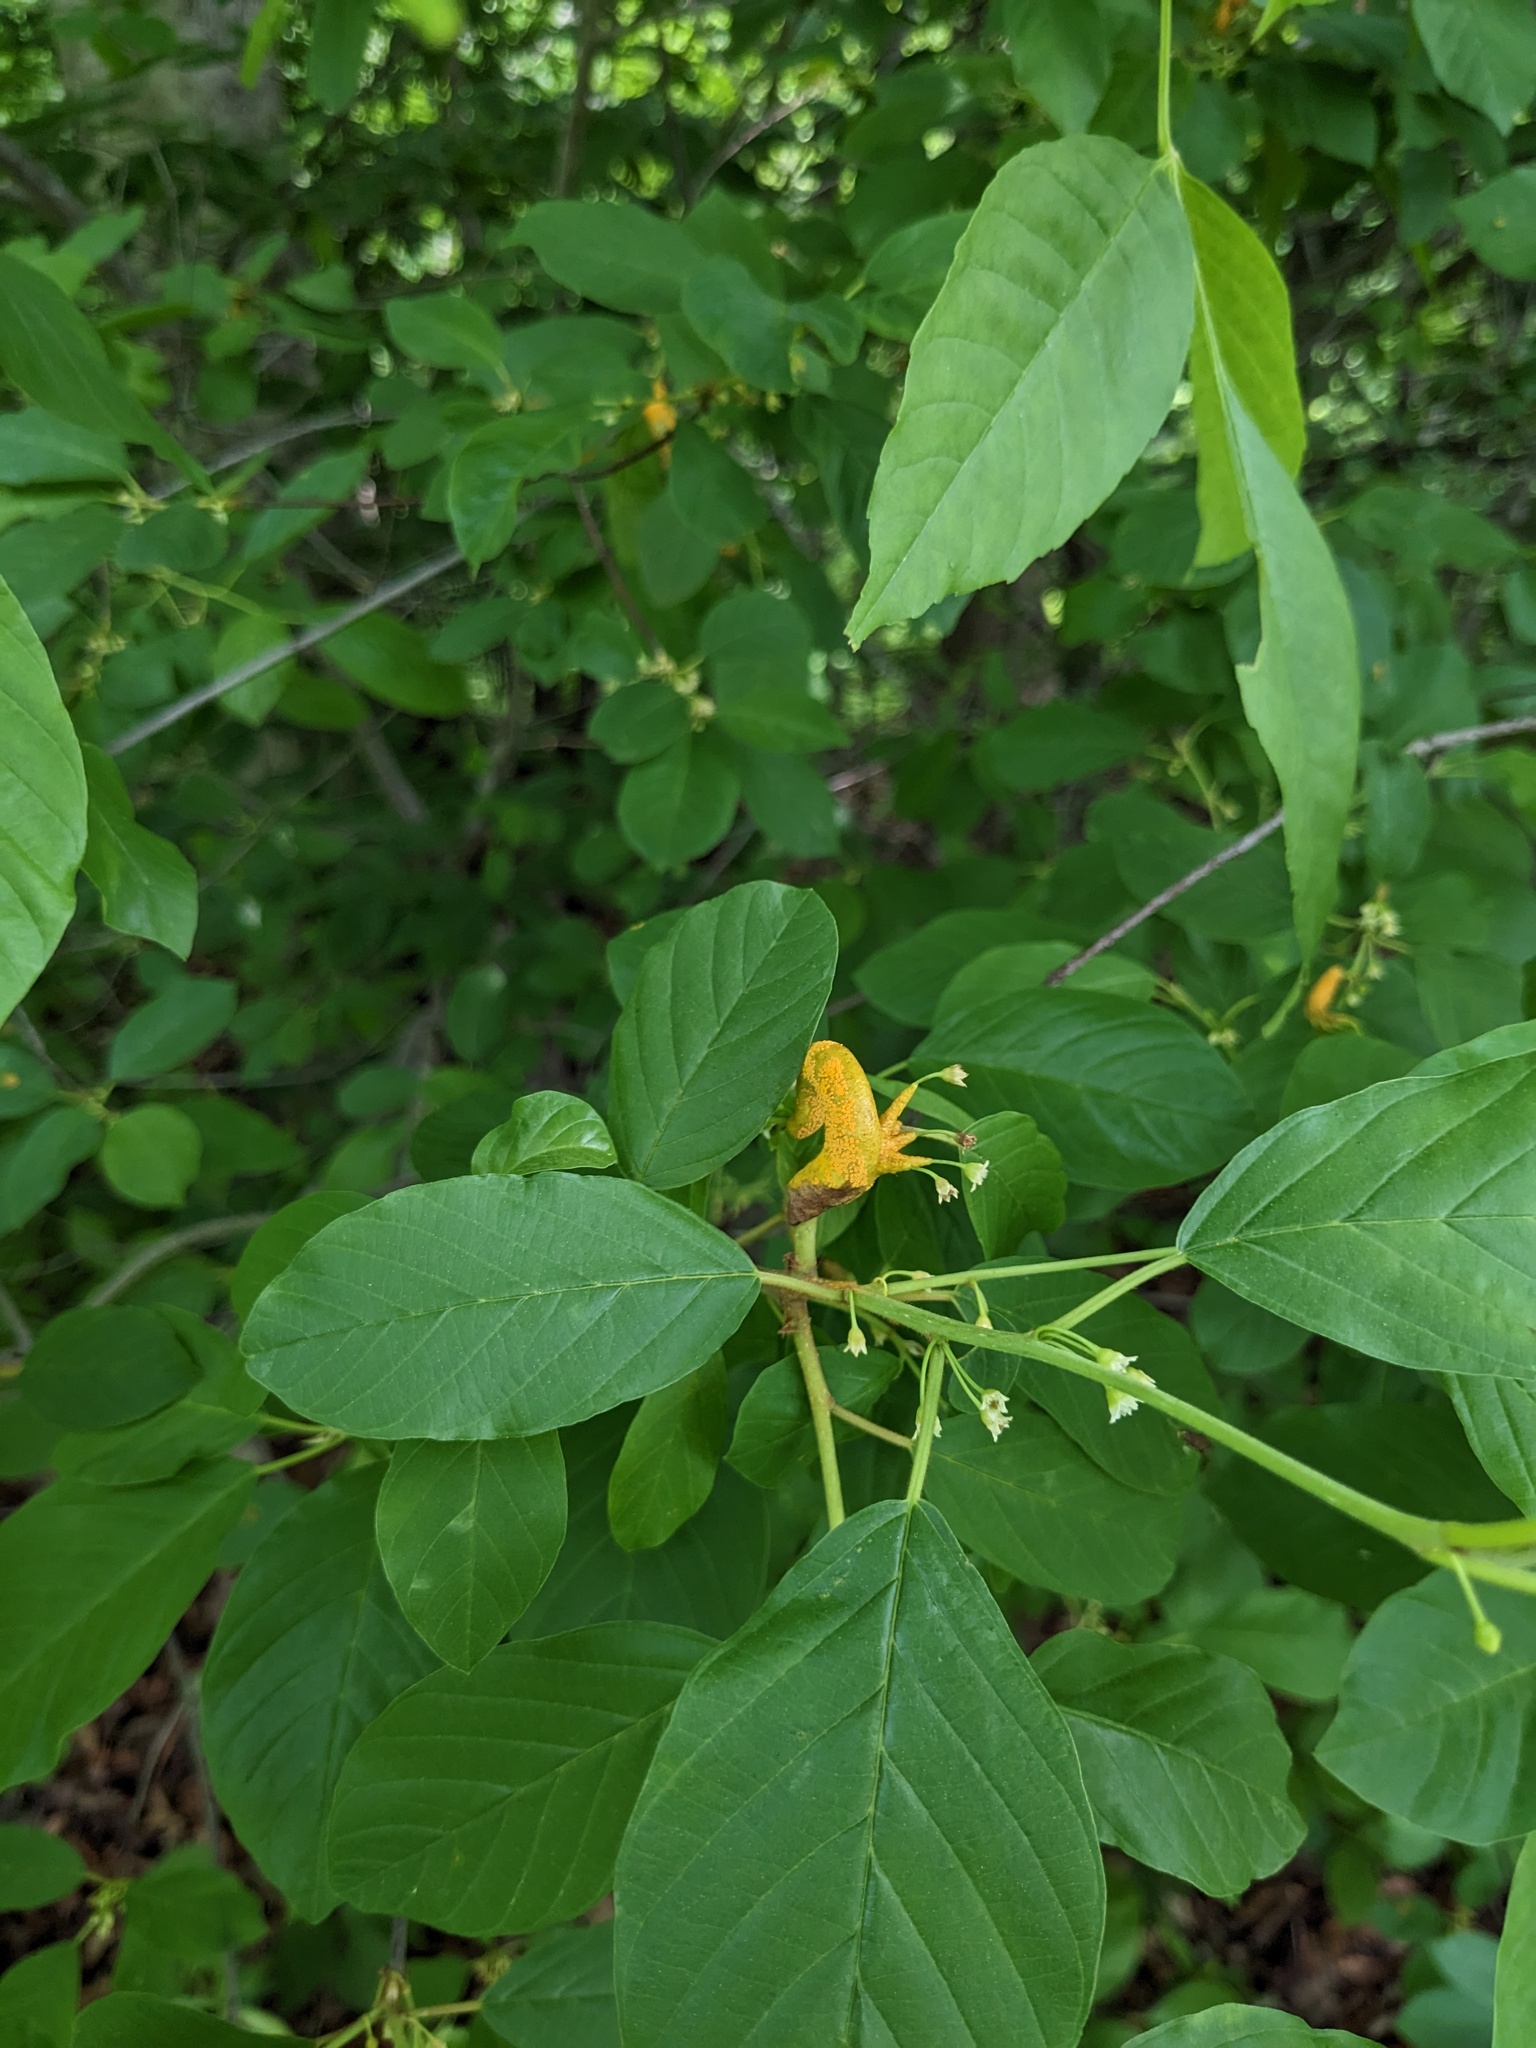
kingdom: Plantae
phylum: Tracheophyta
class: Magnoliopsida
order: Rosales
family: Rhamnaceae
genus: Frangula
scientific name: Frangula alnus
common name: Alder buckthorn
